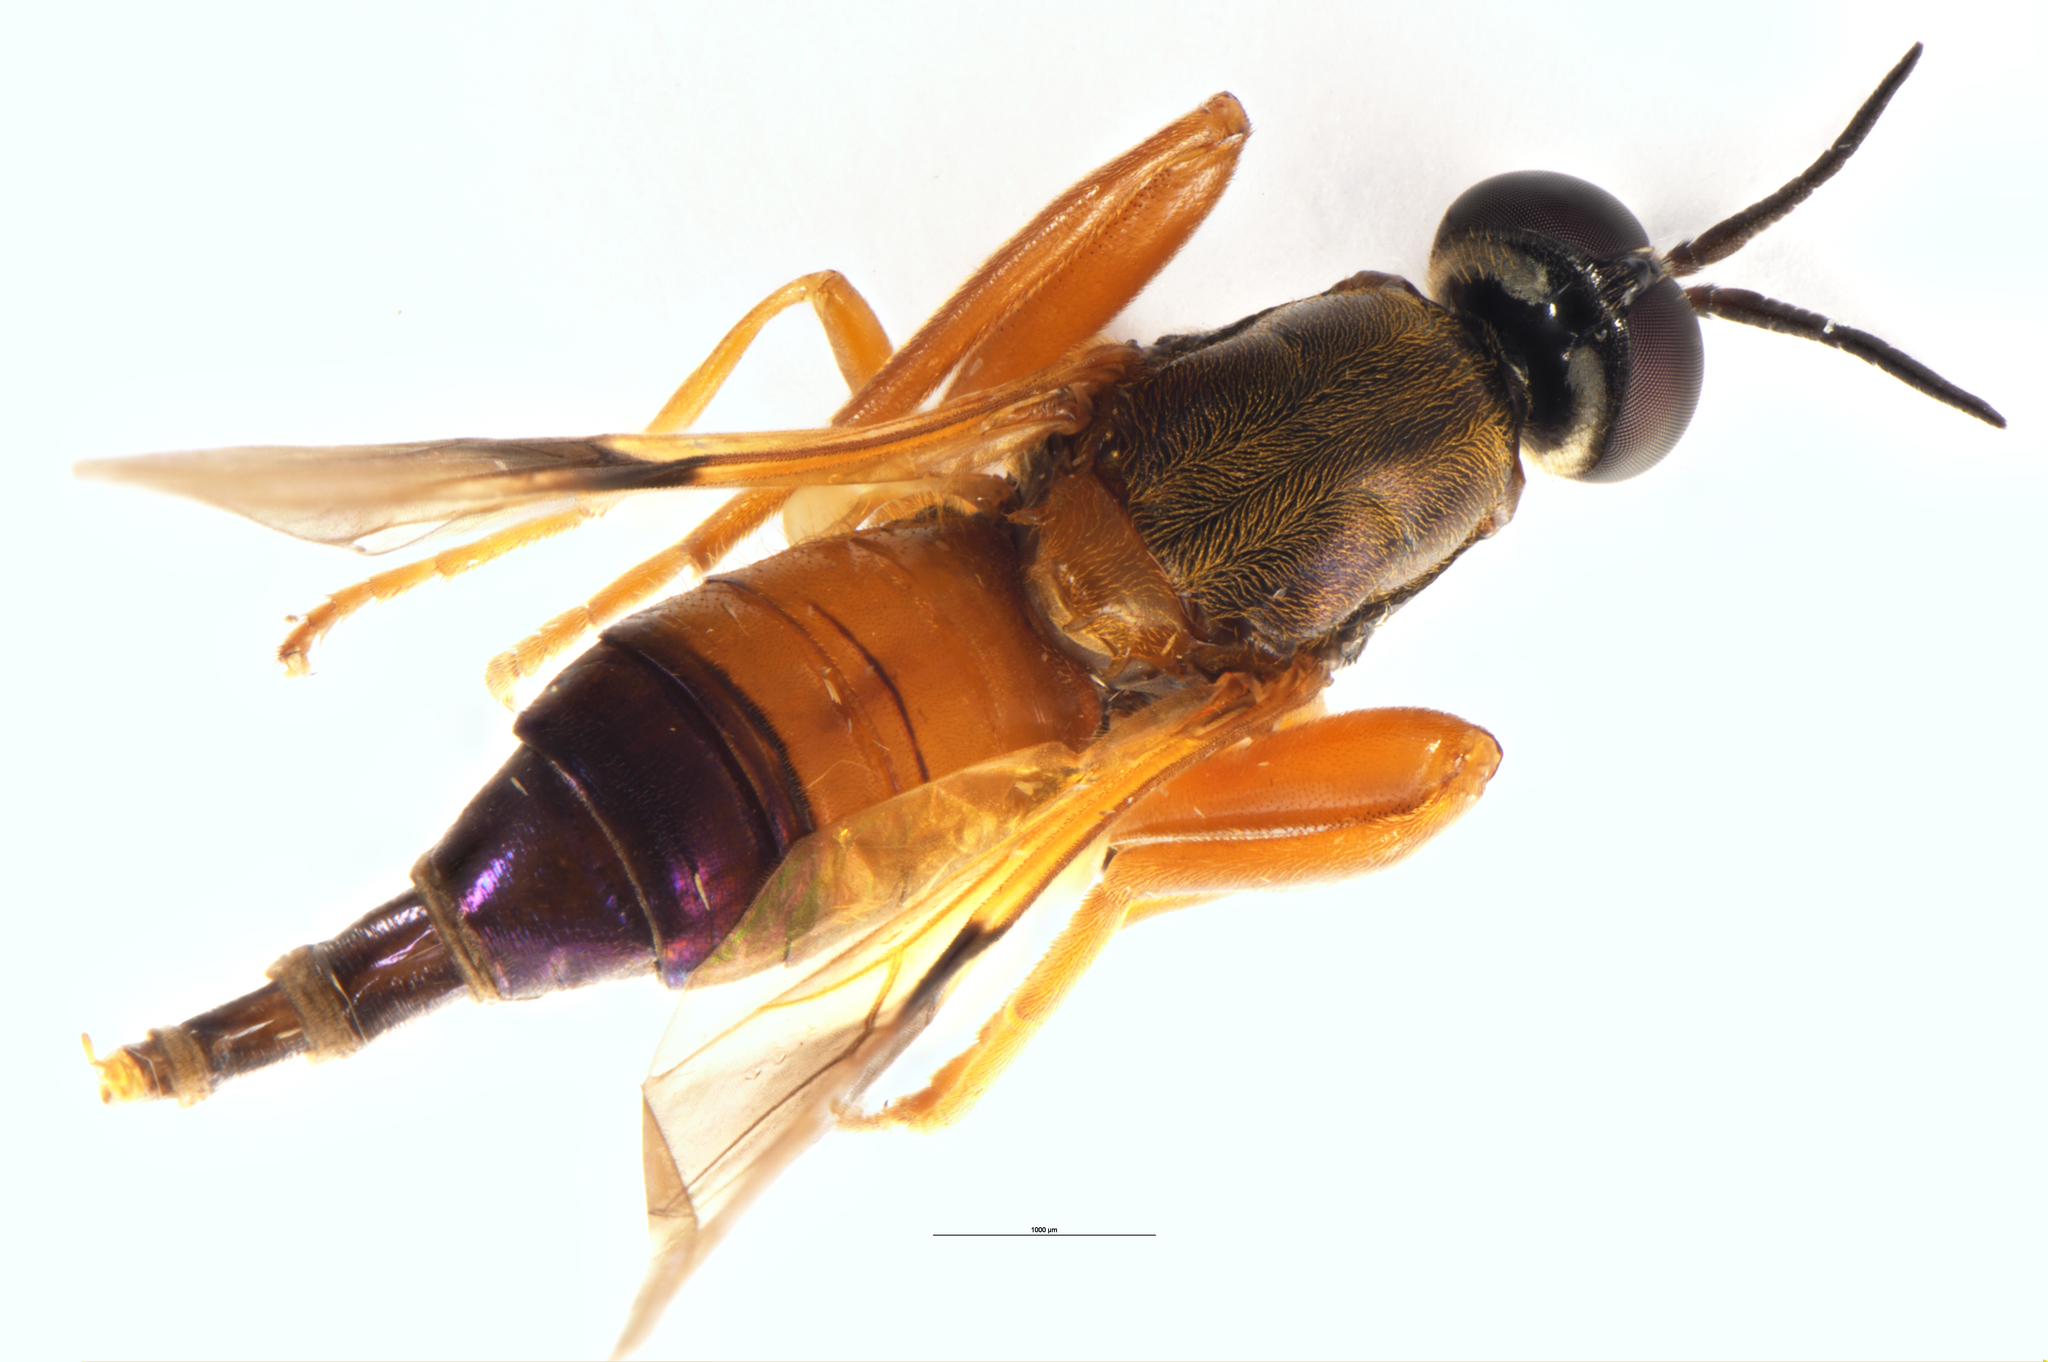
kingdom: Animalia
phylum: Arthropoda
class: Insecta
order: Diptera
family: Stratiomyidae
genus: Benhamyia
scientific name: Benhamyia apicalis
